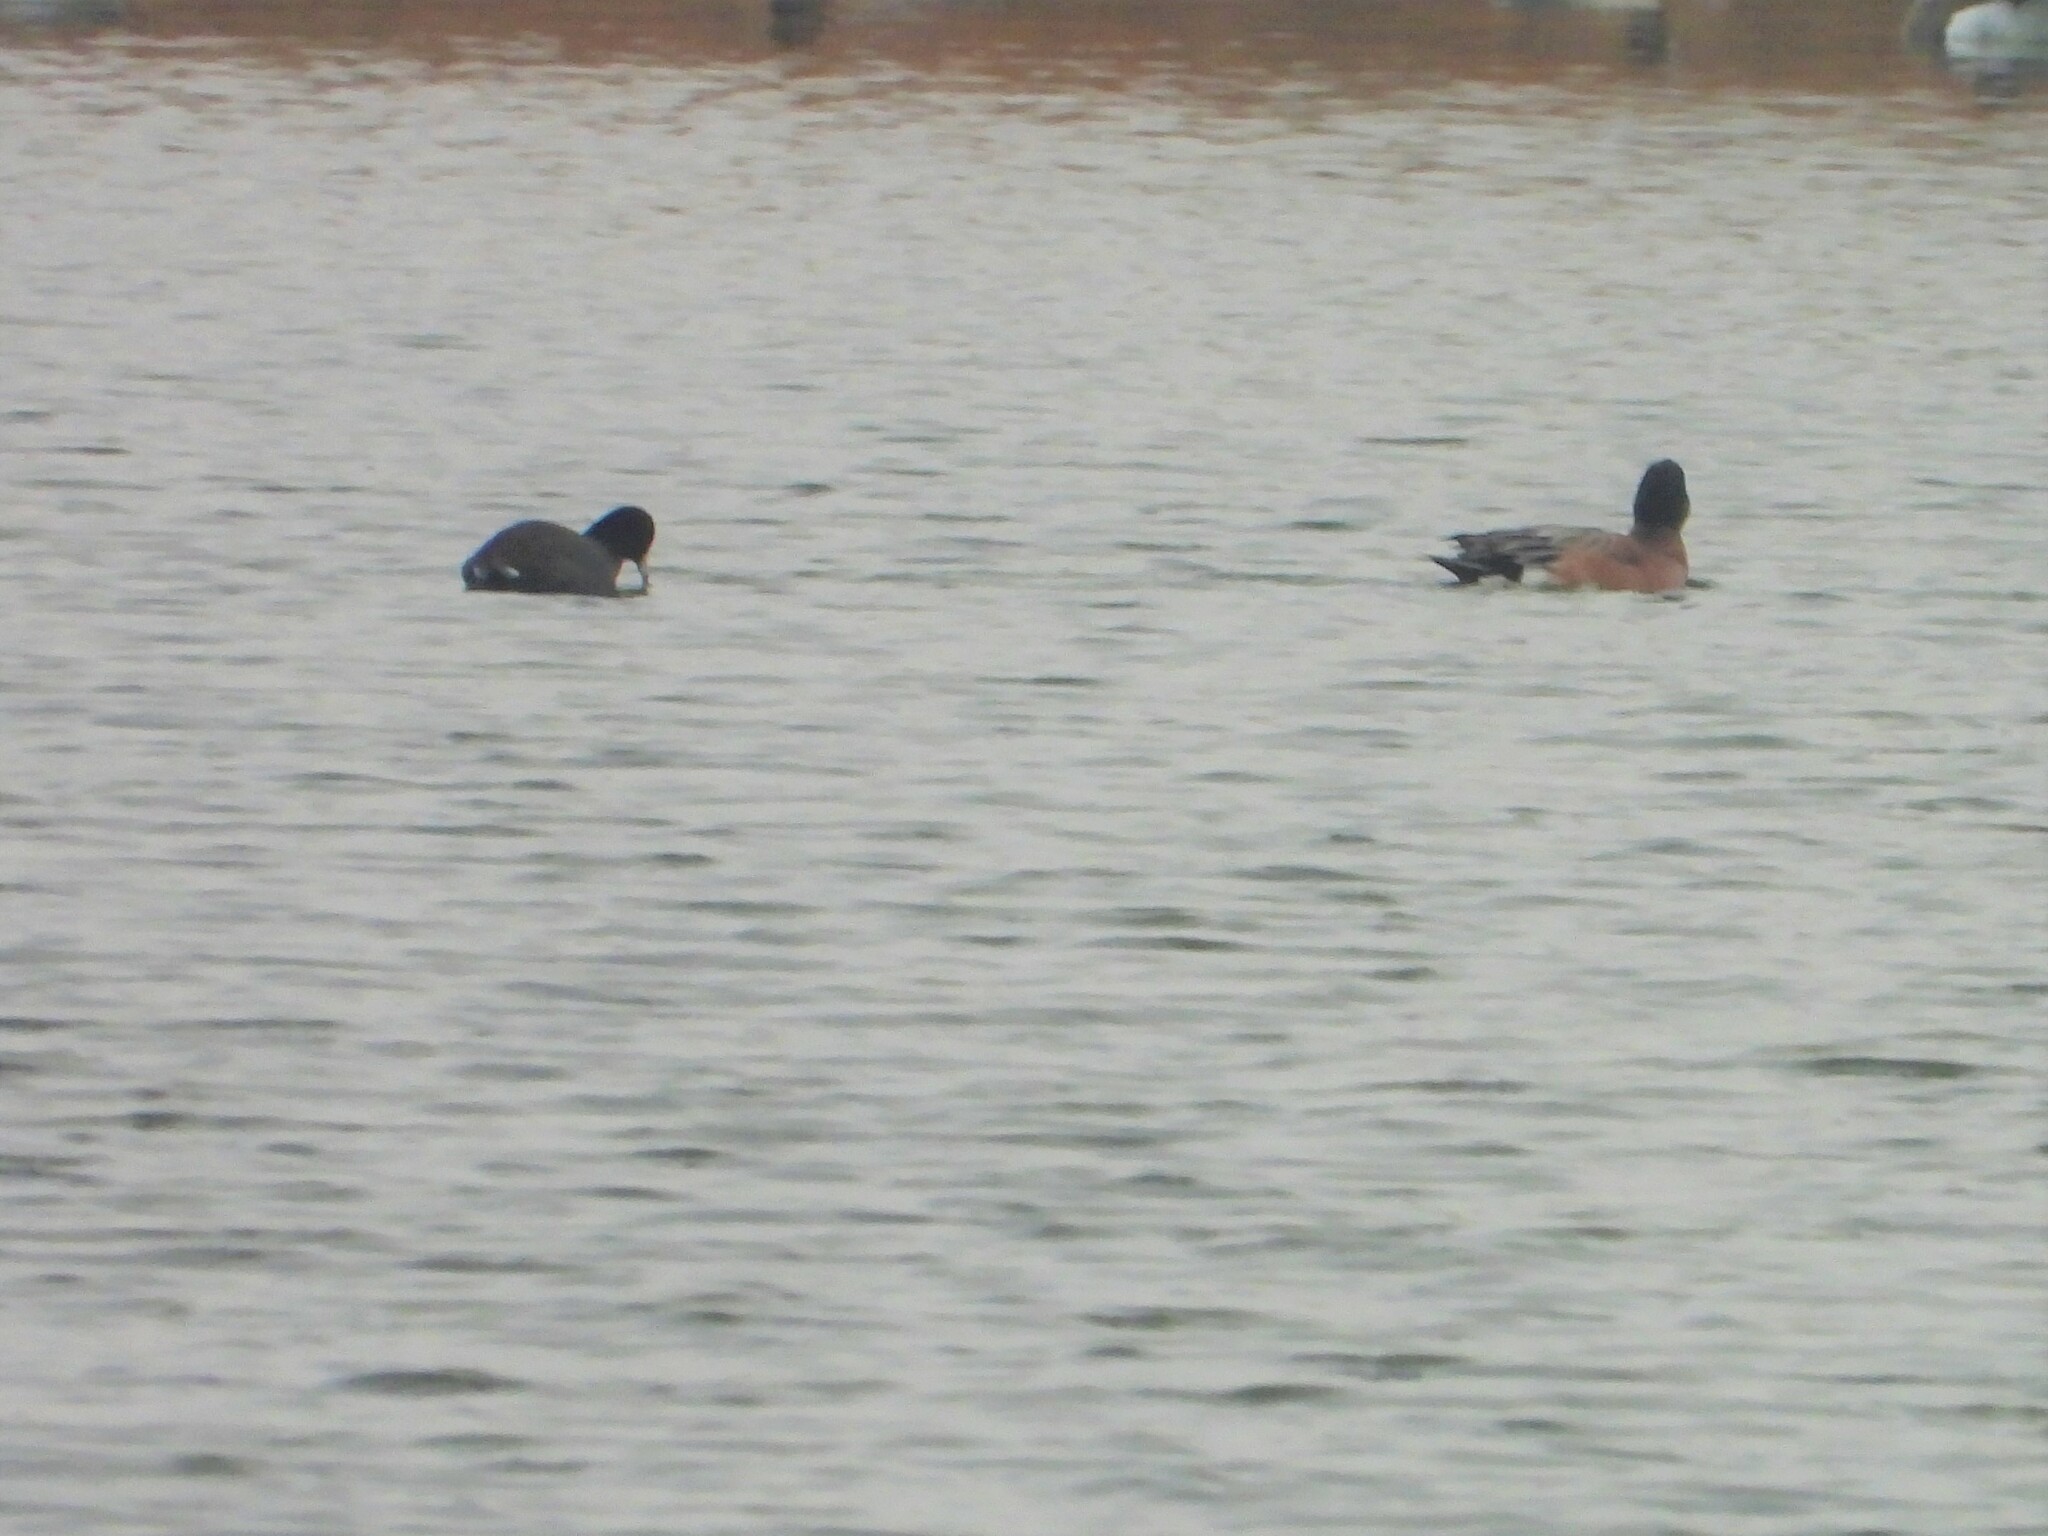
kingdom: Animalia
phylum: Chordata
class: Aves
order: Anseriformes
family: Anatidae
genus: Mareca
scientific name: Mareca americana
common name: American wigeon
